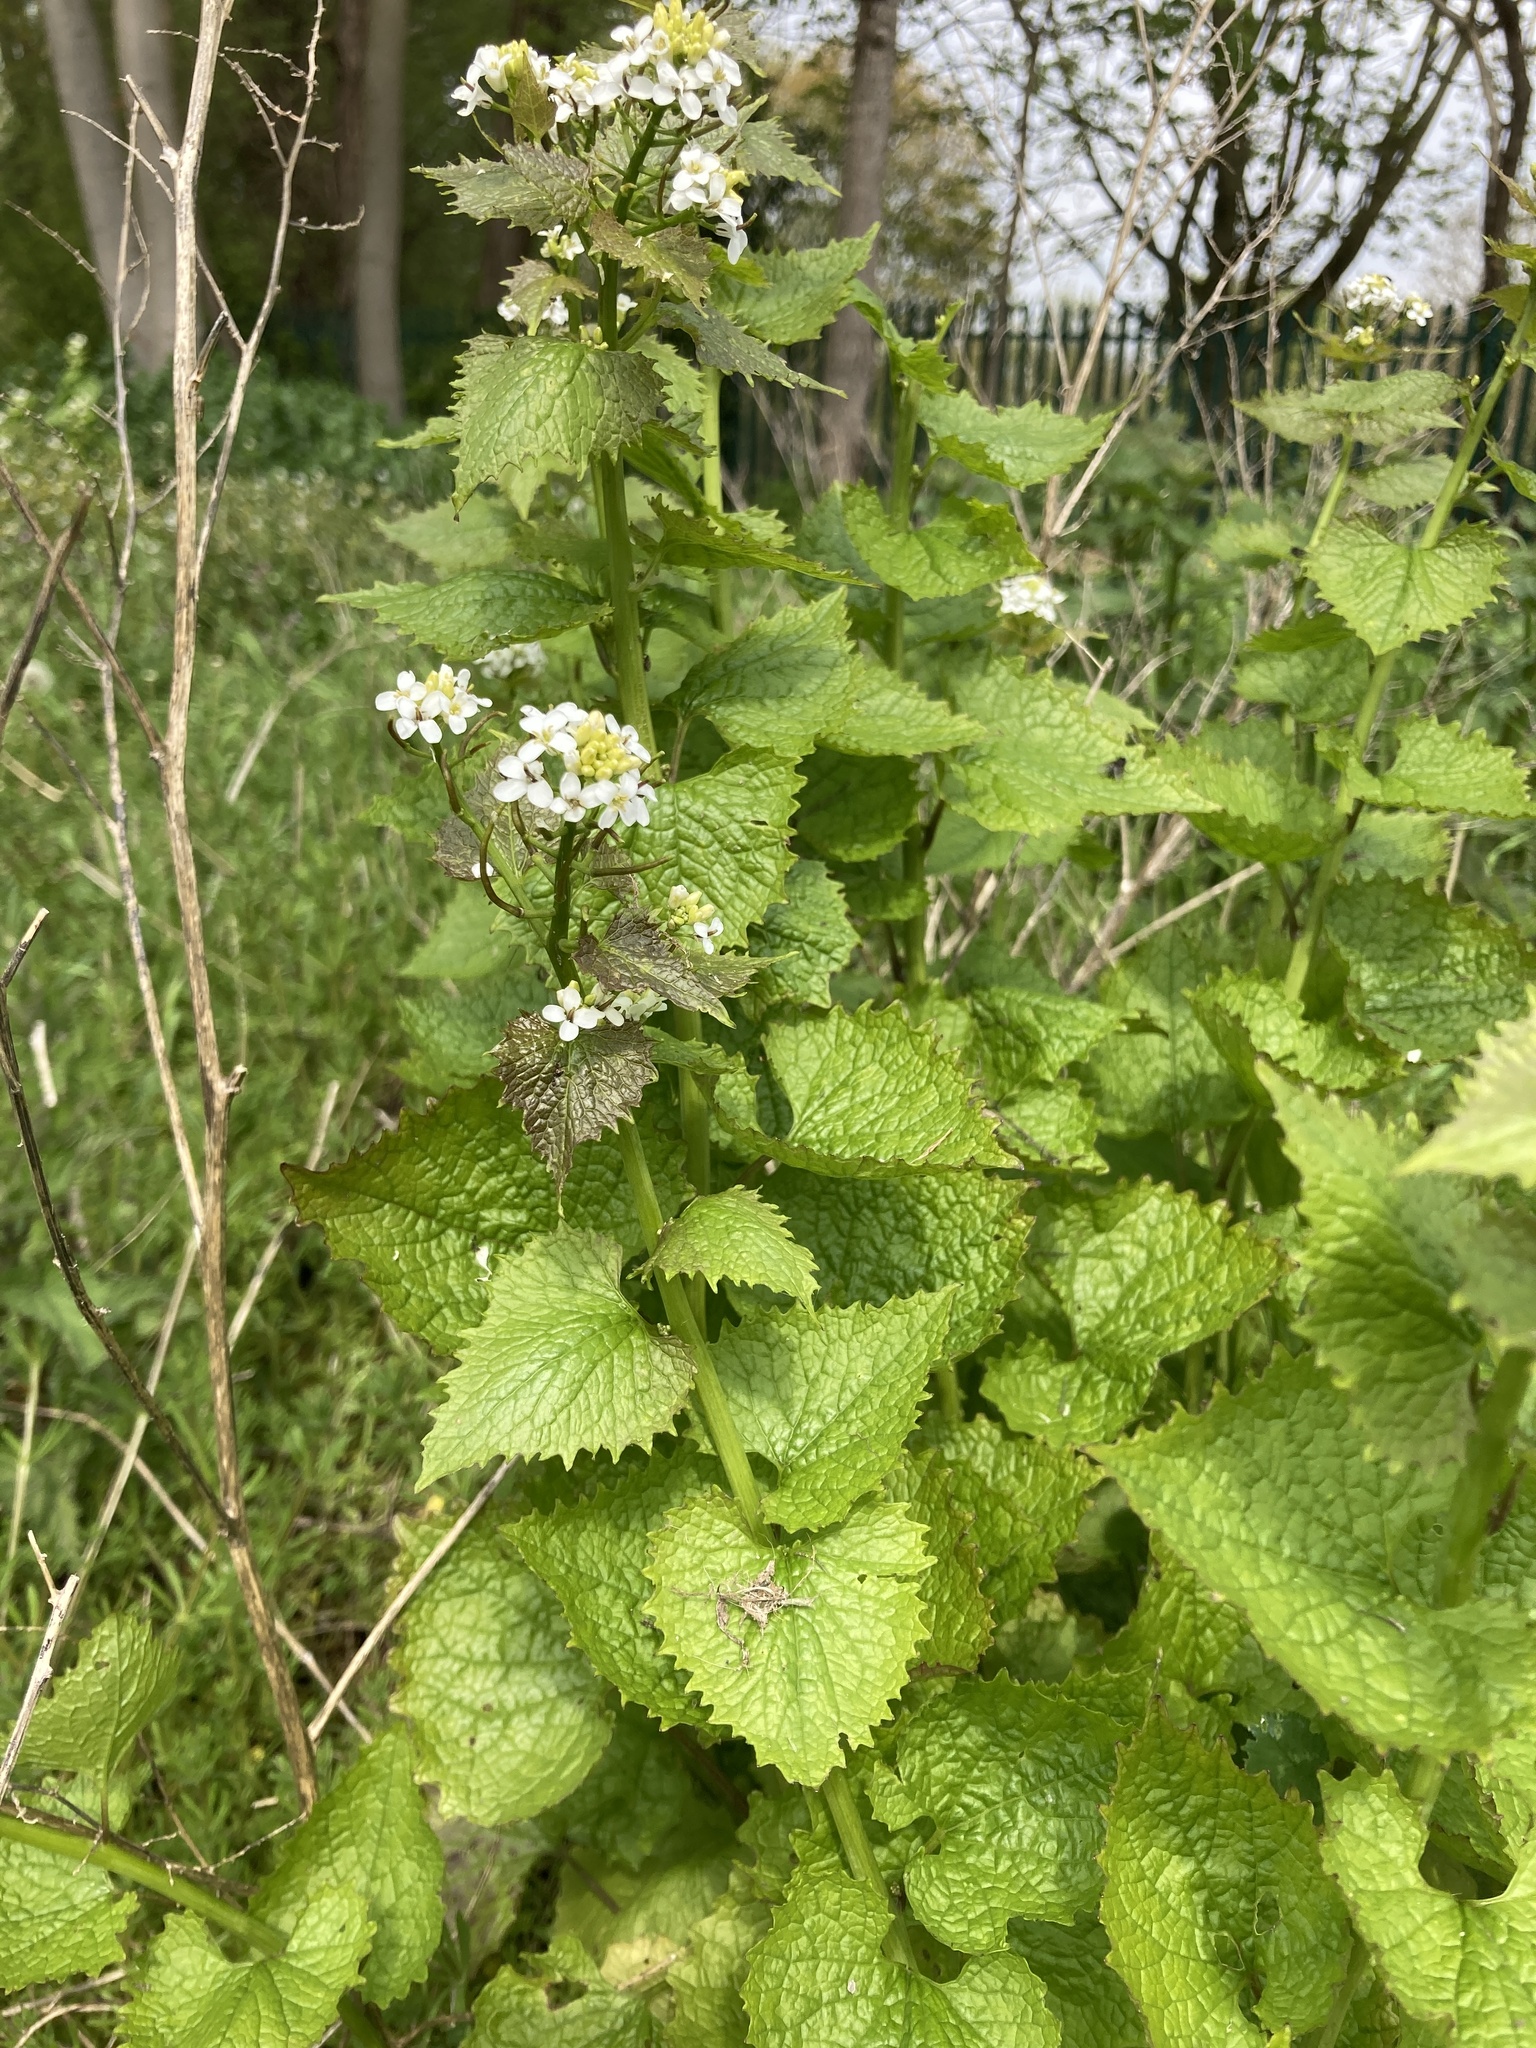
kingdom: Plantae
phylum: Tracheophyta
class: Magnoliopsida
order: Brassicales
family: Brassicaceae
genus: Alliaria
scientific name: Alliaria petiolata
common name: Garlic mustard
